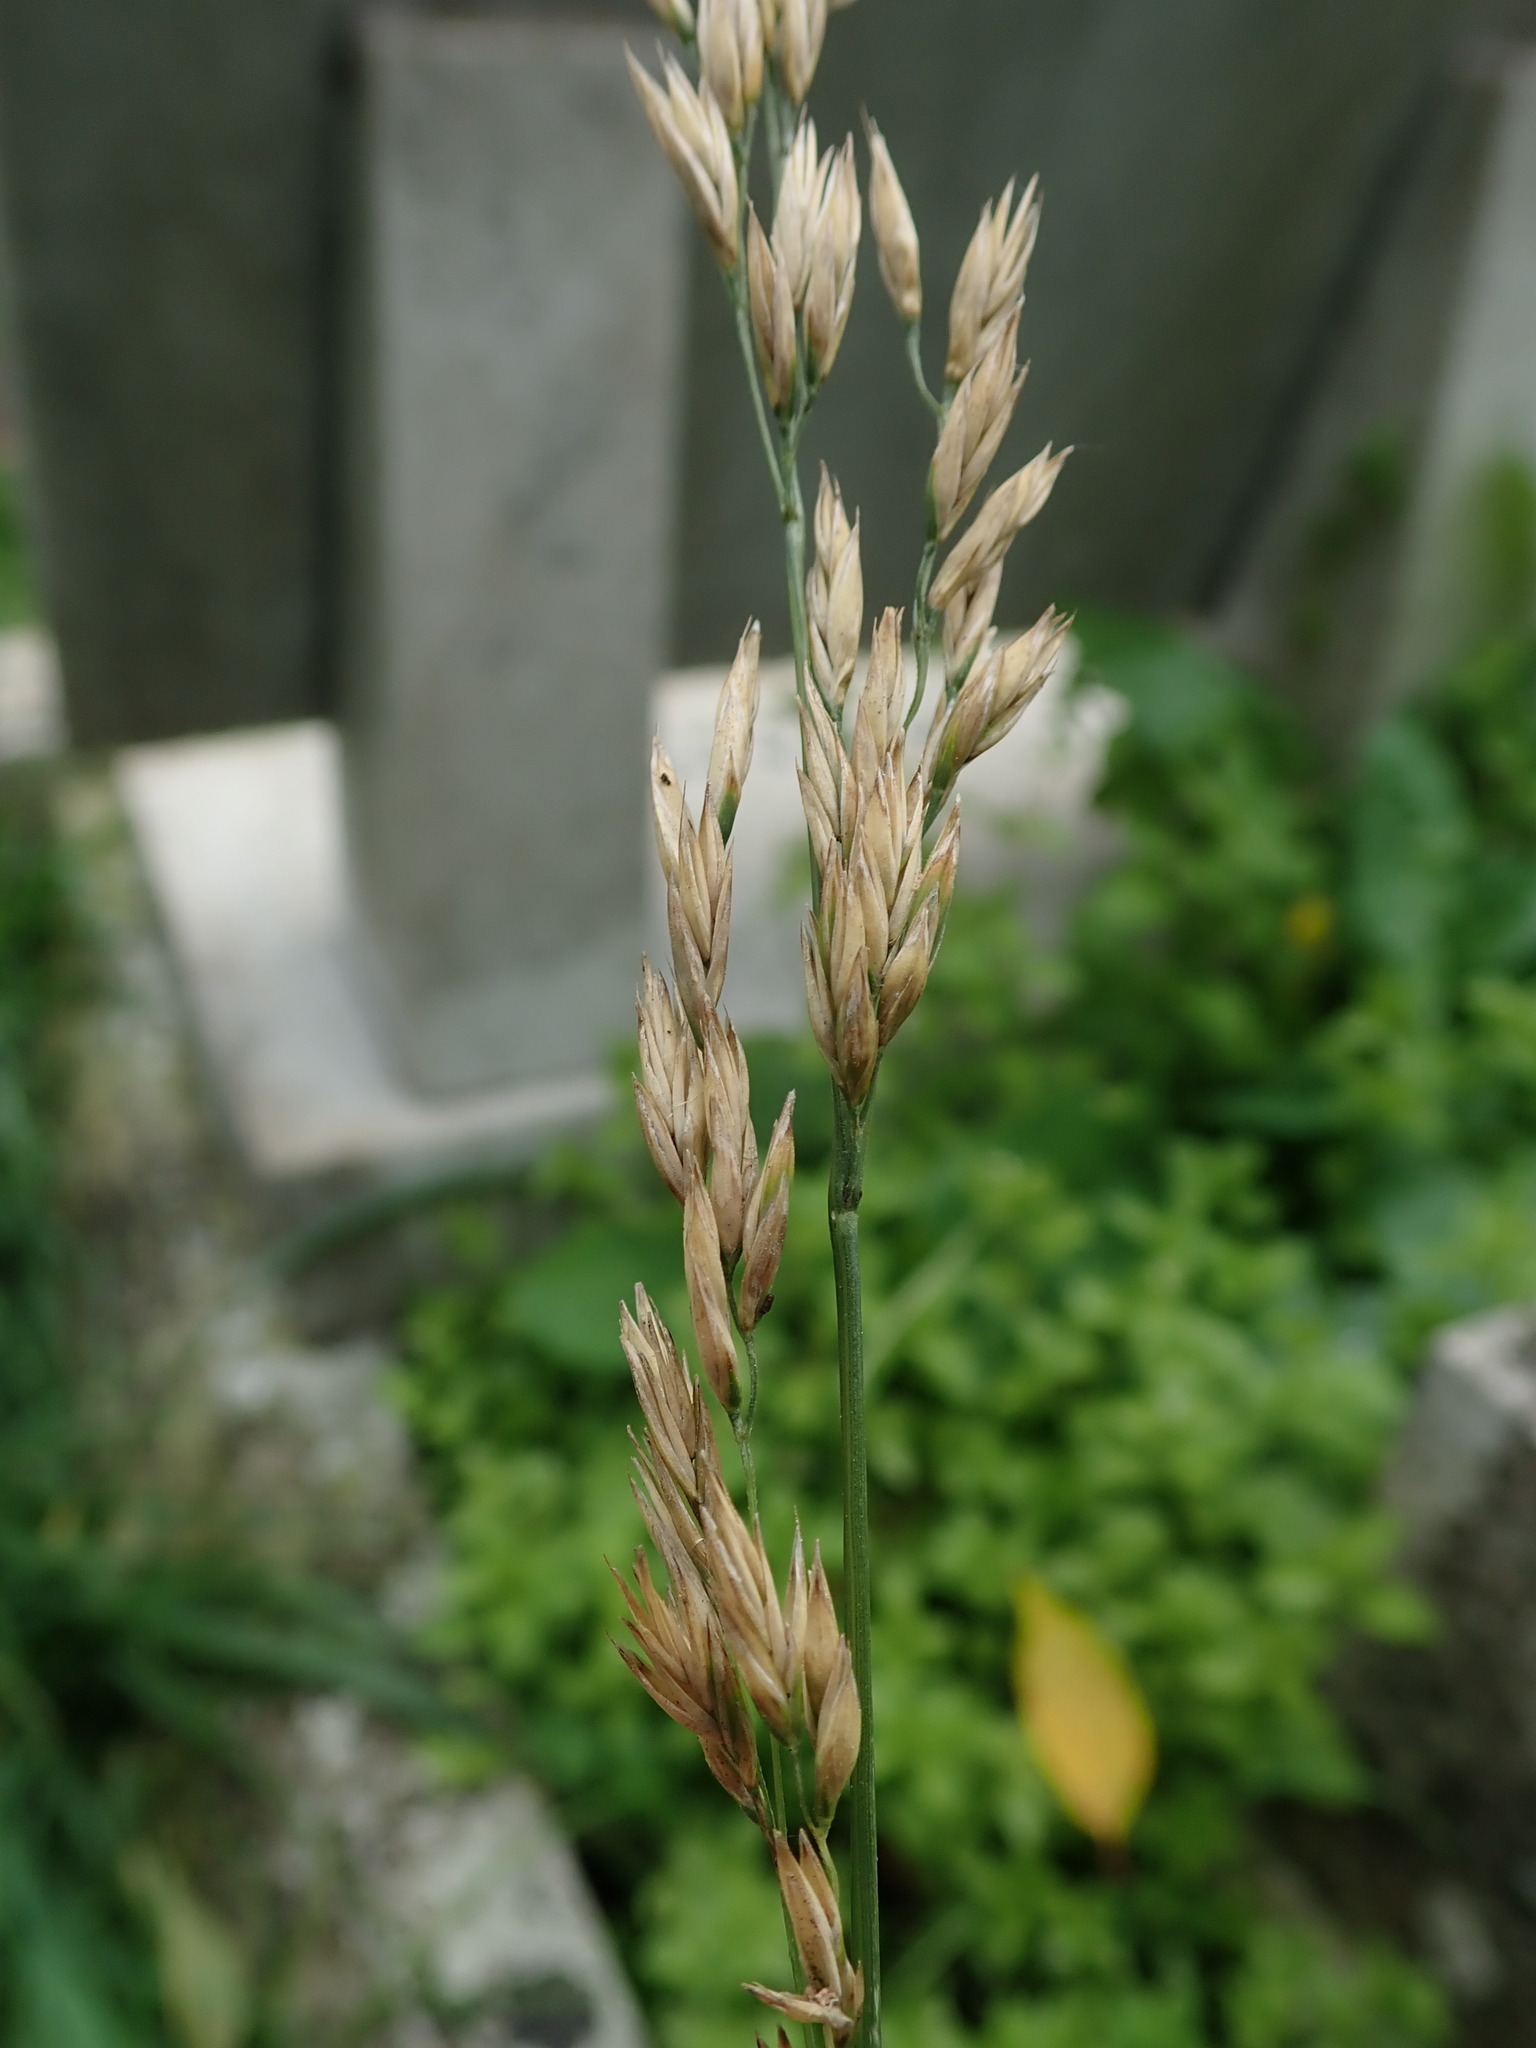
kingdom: Plantae
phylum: Tracheophyta
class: Liliopsida
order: Poales
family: Poaceae
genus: Lolium
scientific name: Lolium arundinaceum
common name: Reed fescue
